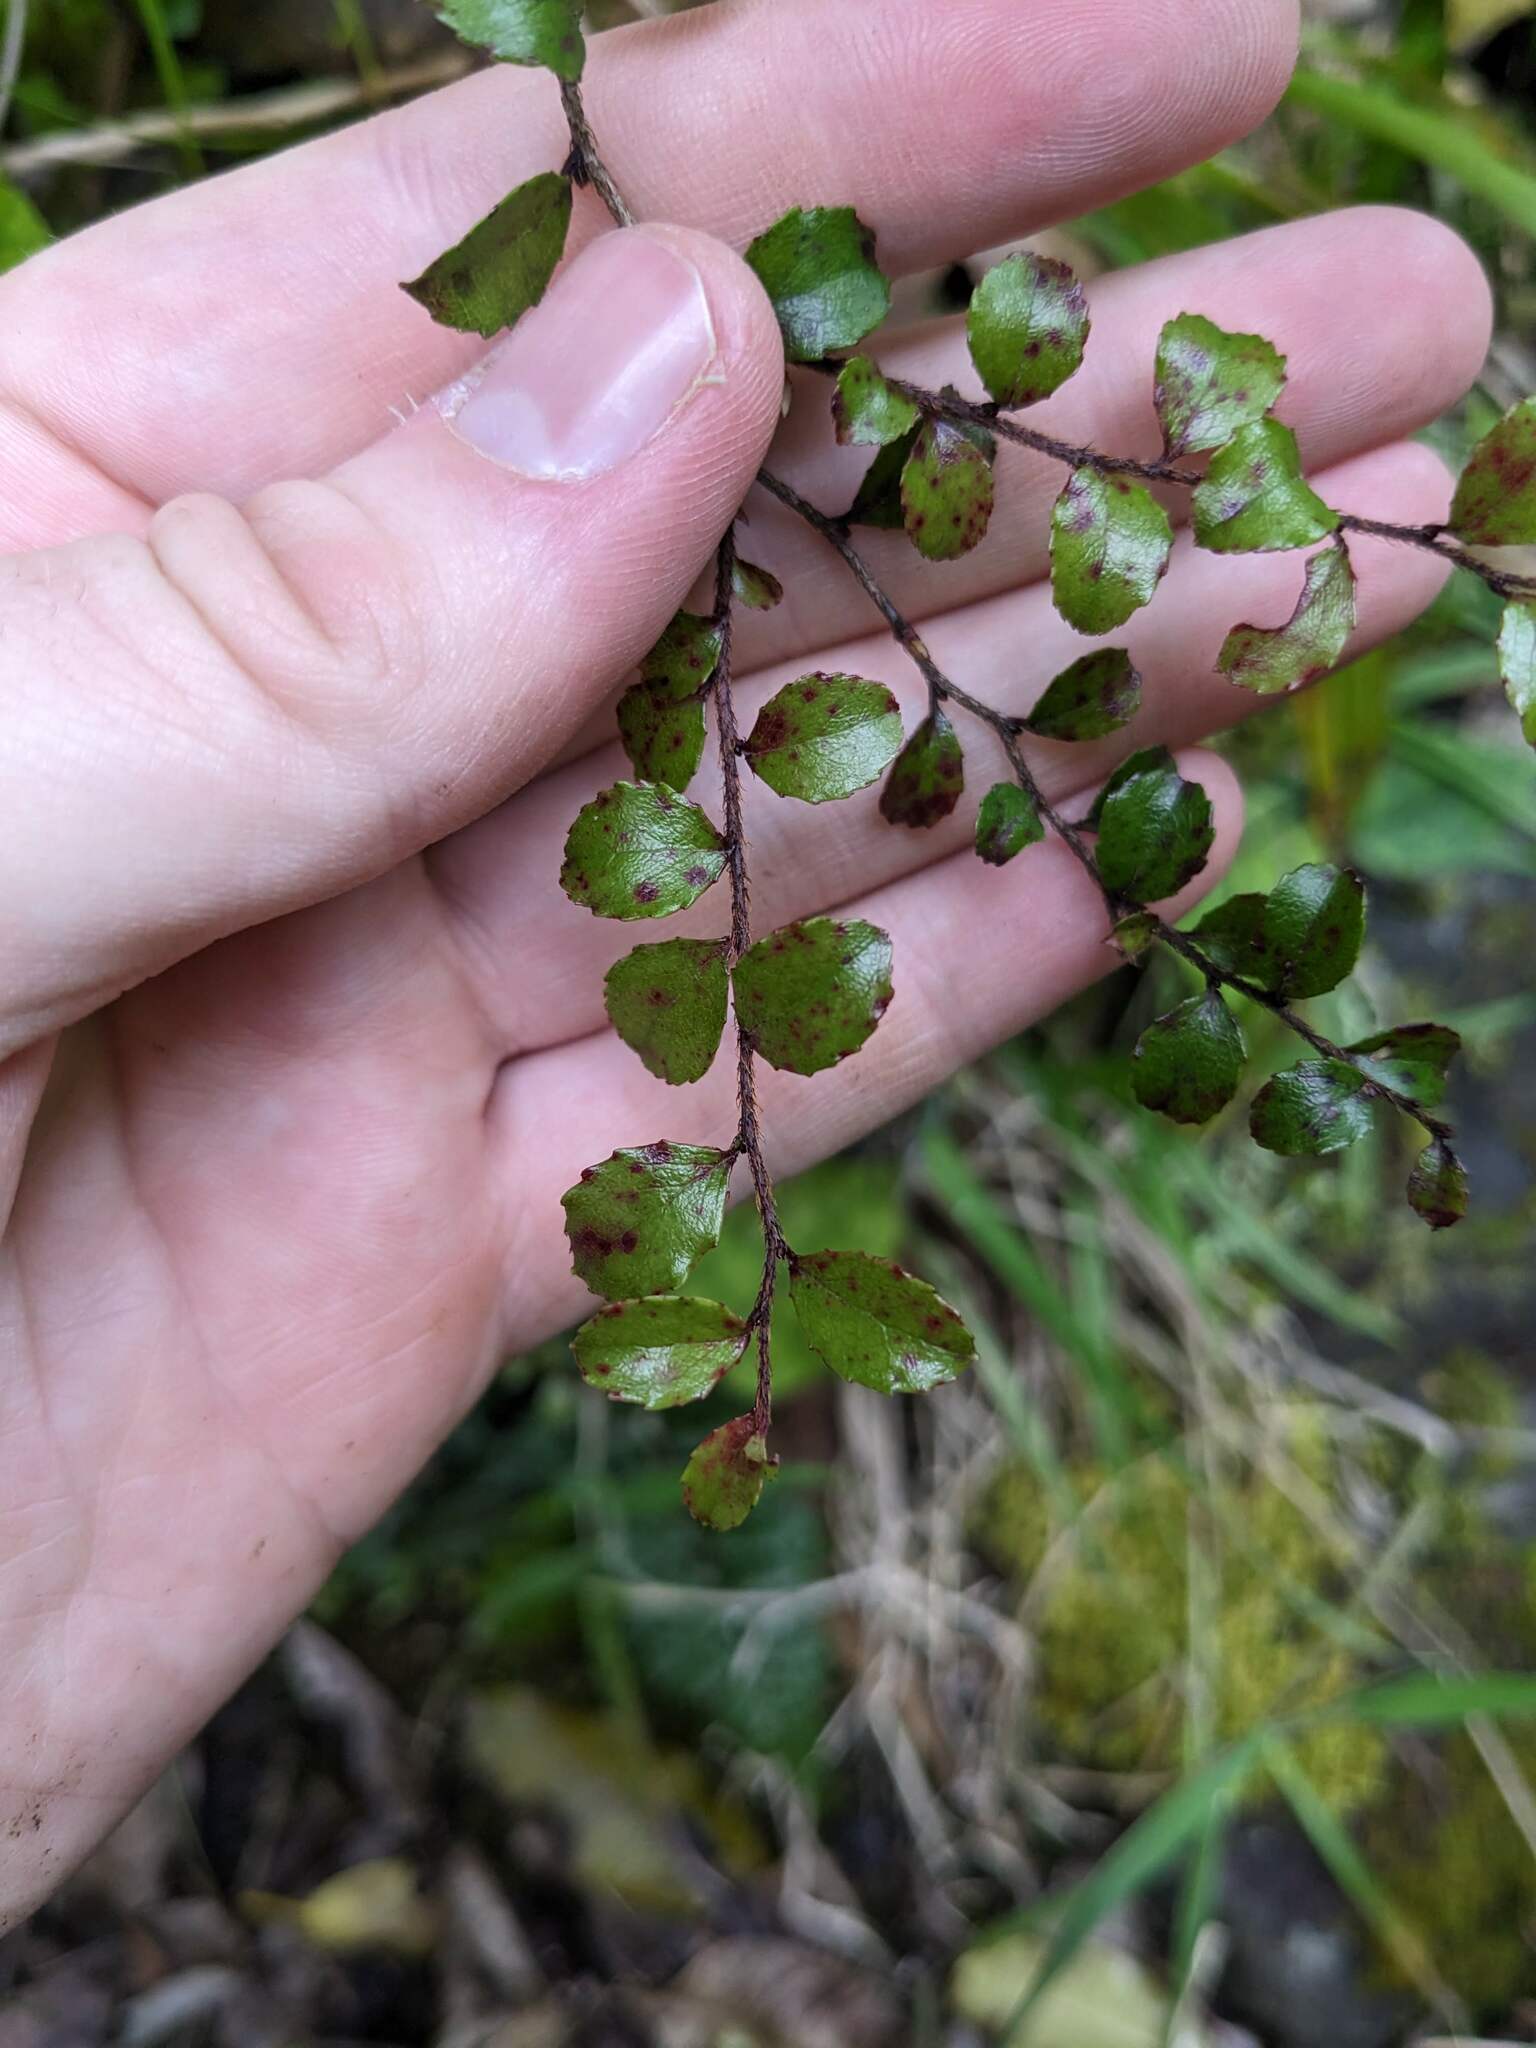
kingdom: Plantae
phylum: Tracheophyta
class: Magnoliopsida
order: Ericales
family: Ericaceae
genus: Gaultheria
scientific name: Gaultheria antipoda
